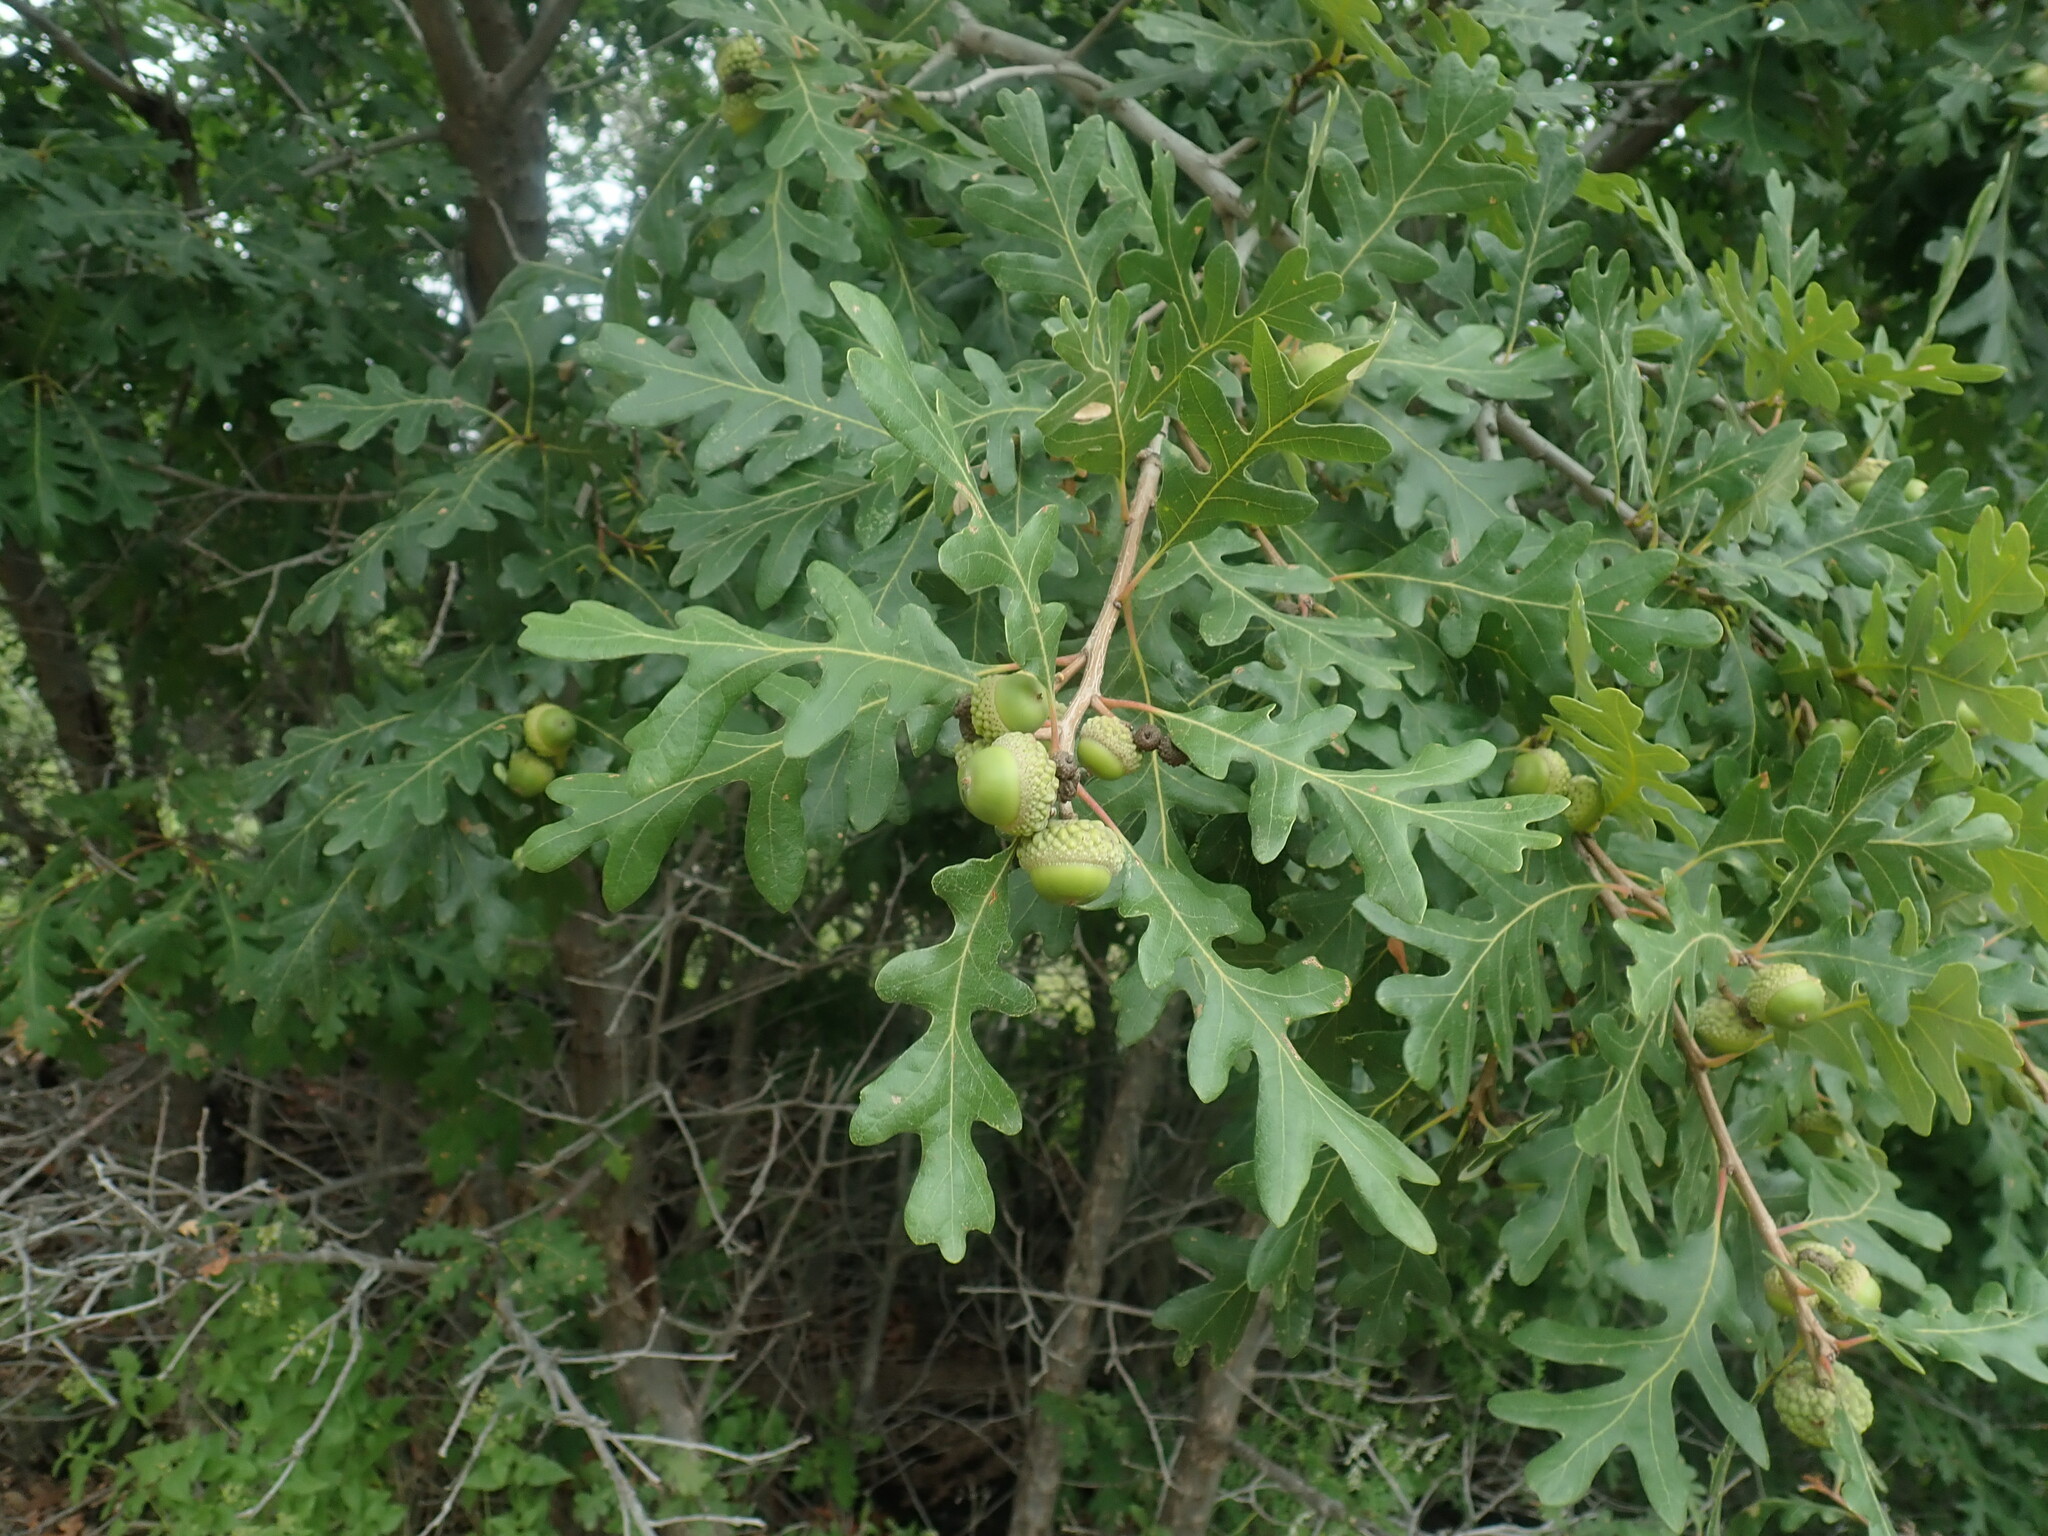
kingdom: Plantae
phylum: Tracheophyta
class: Magnoliopsida
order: Fagales
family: Fagaceae
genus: Quercus
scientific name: Quercus gambelii
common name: Gambel oak
